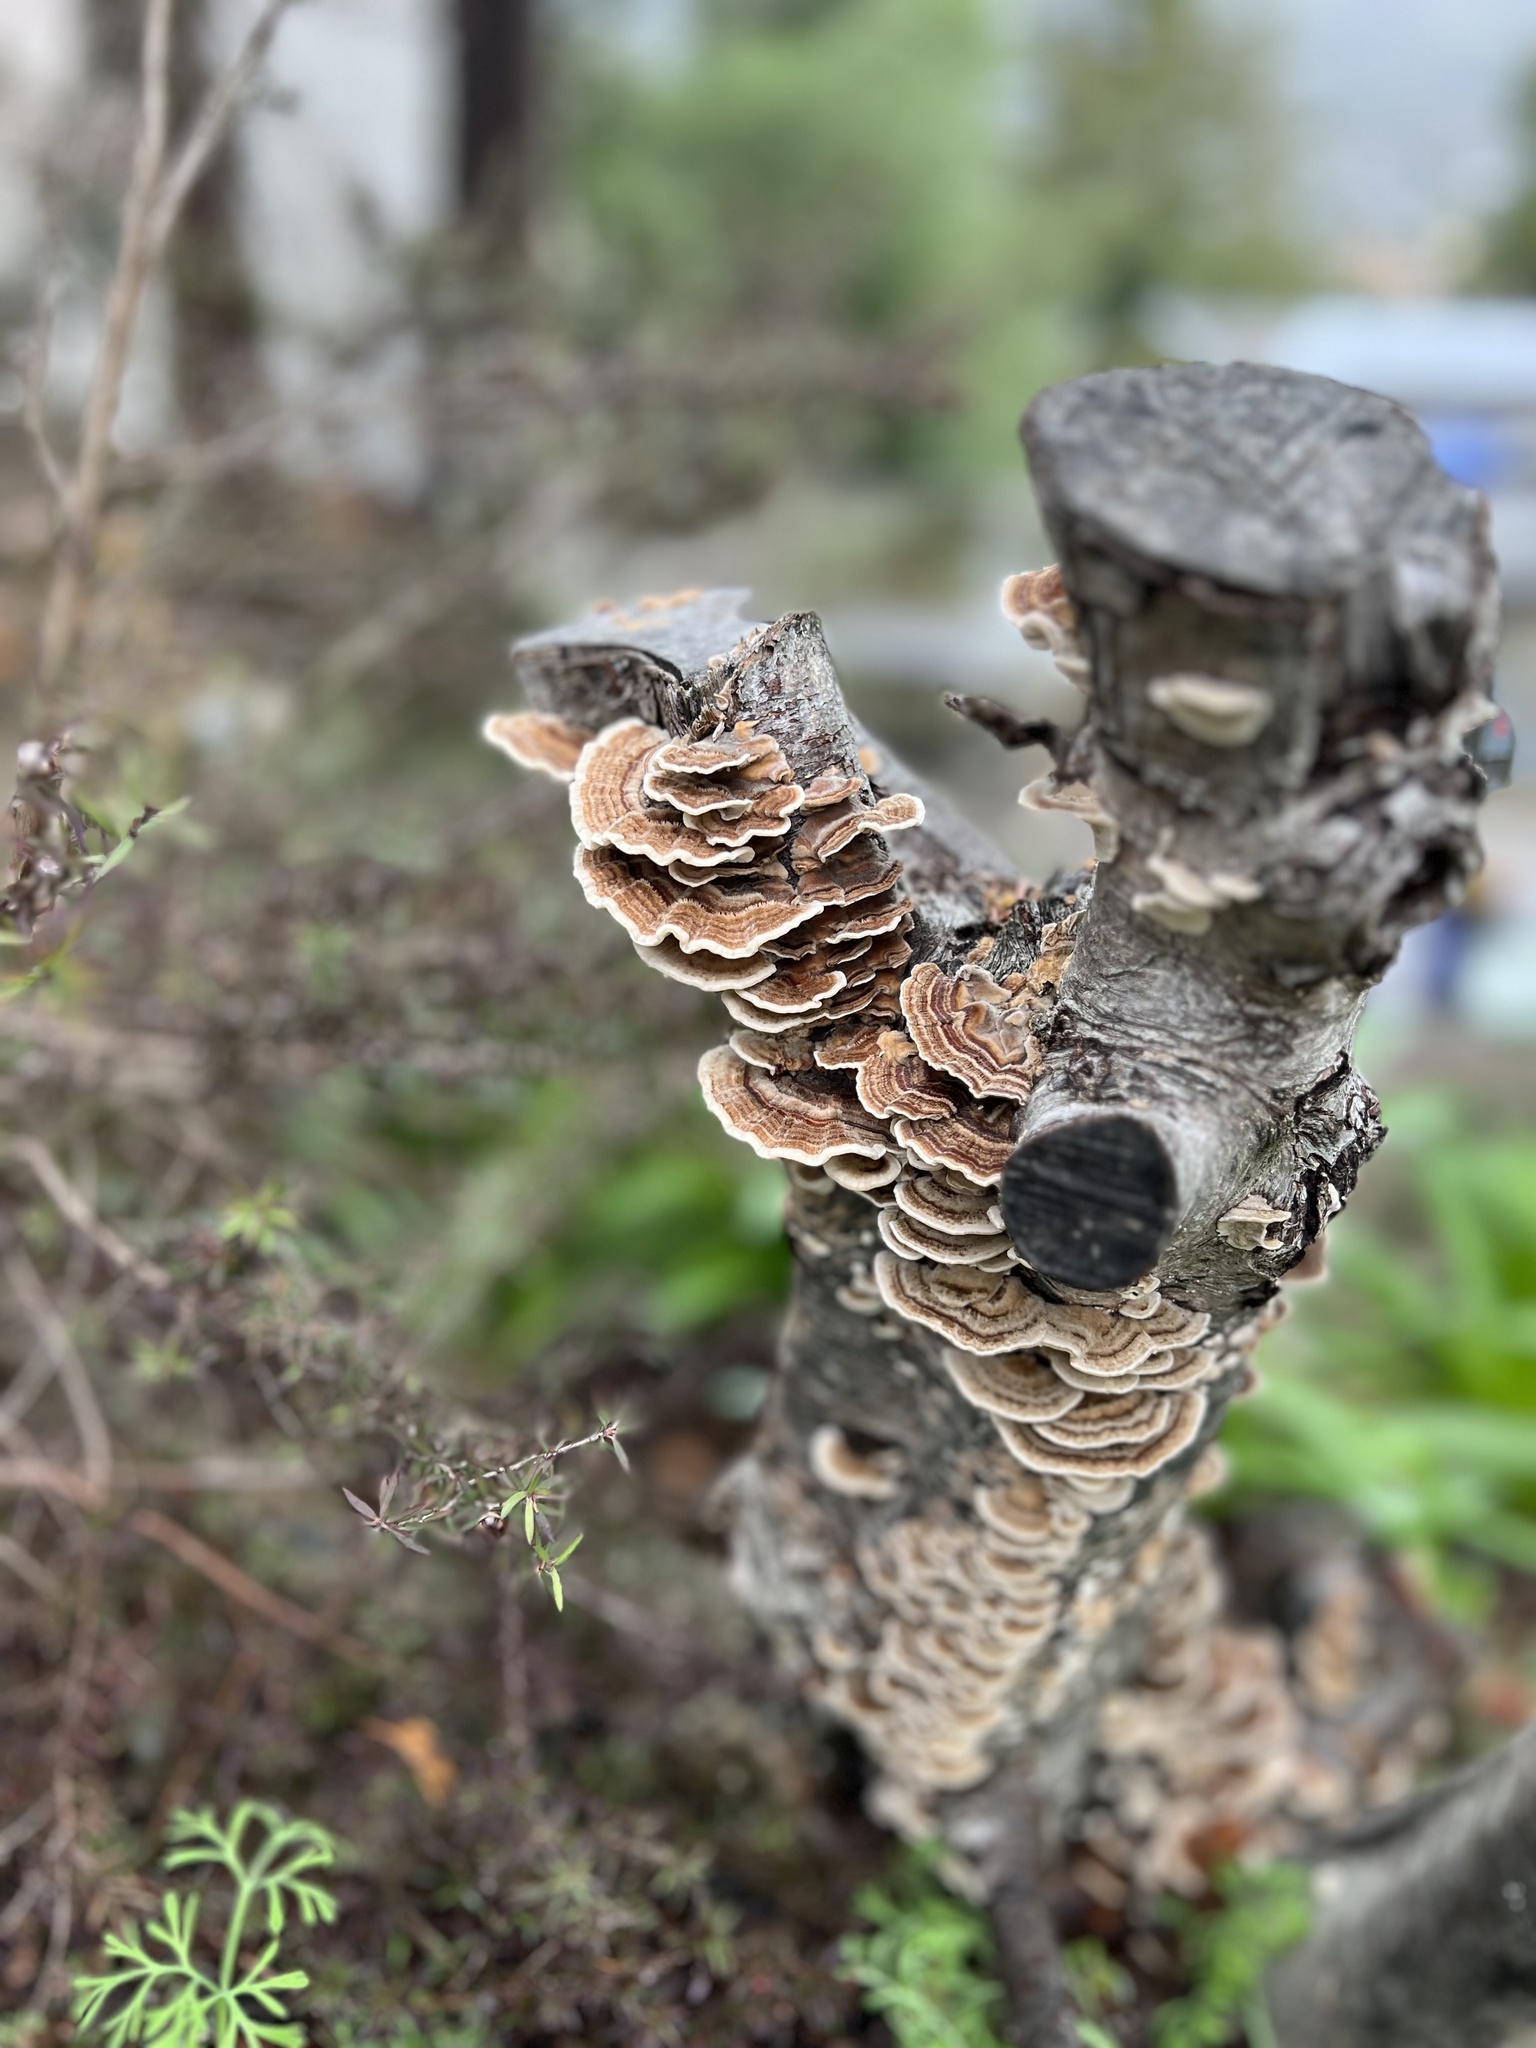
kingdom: Fungi
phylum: Basidiomycota
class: Agaricomycetes
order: Polyporales
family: Polyporaceae
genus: Trametes
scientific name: Trametes versicolor
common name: Turkeytail
